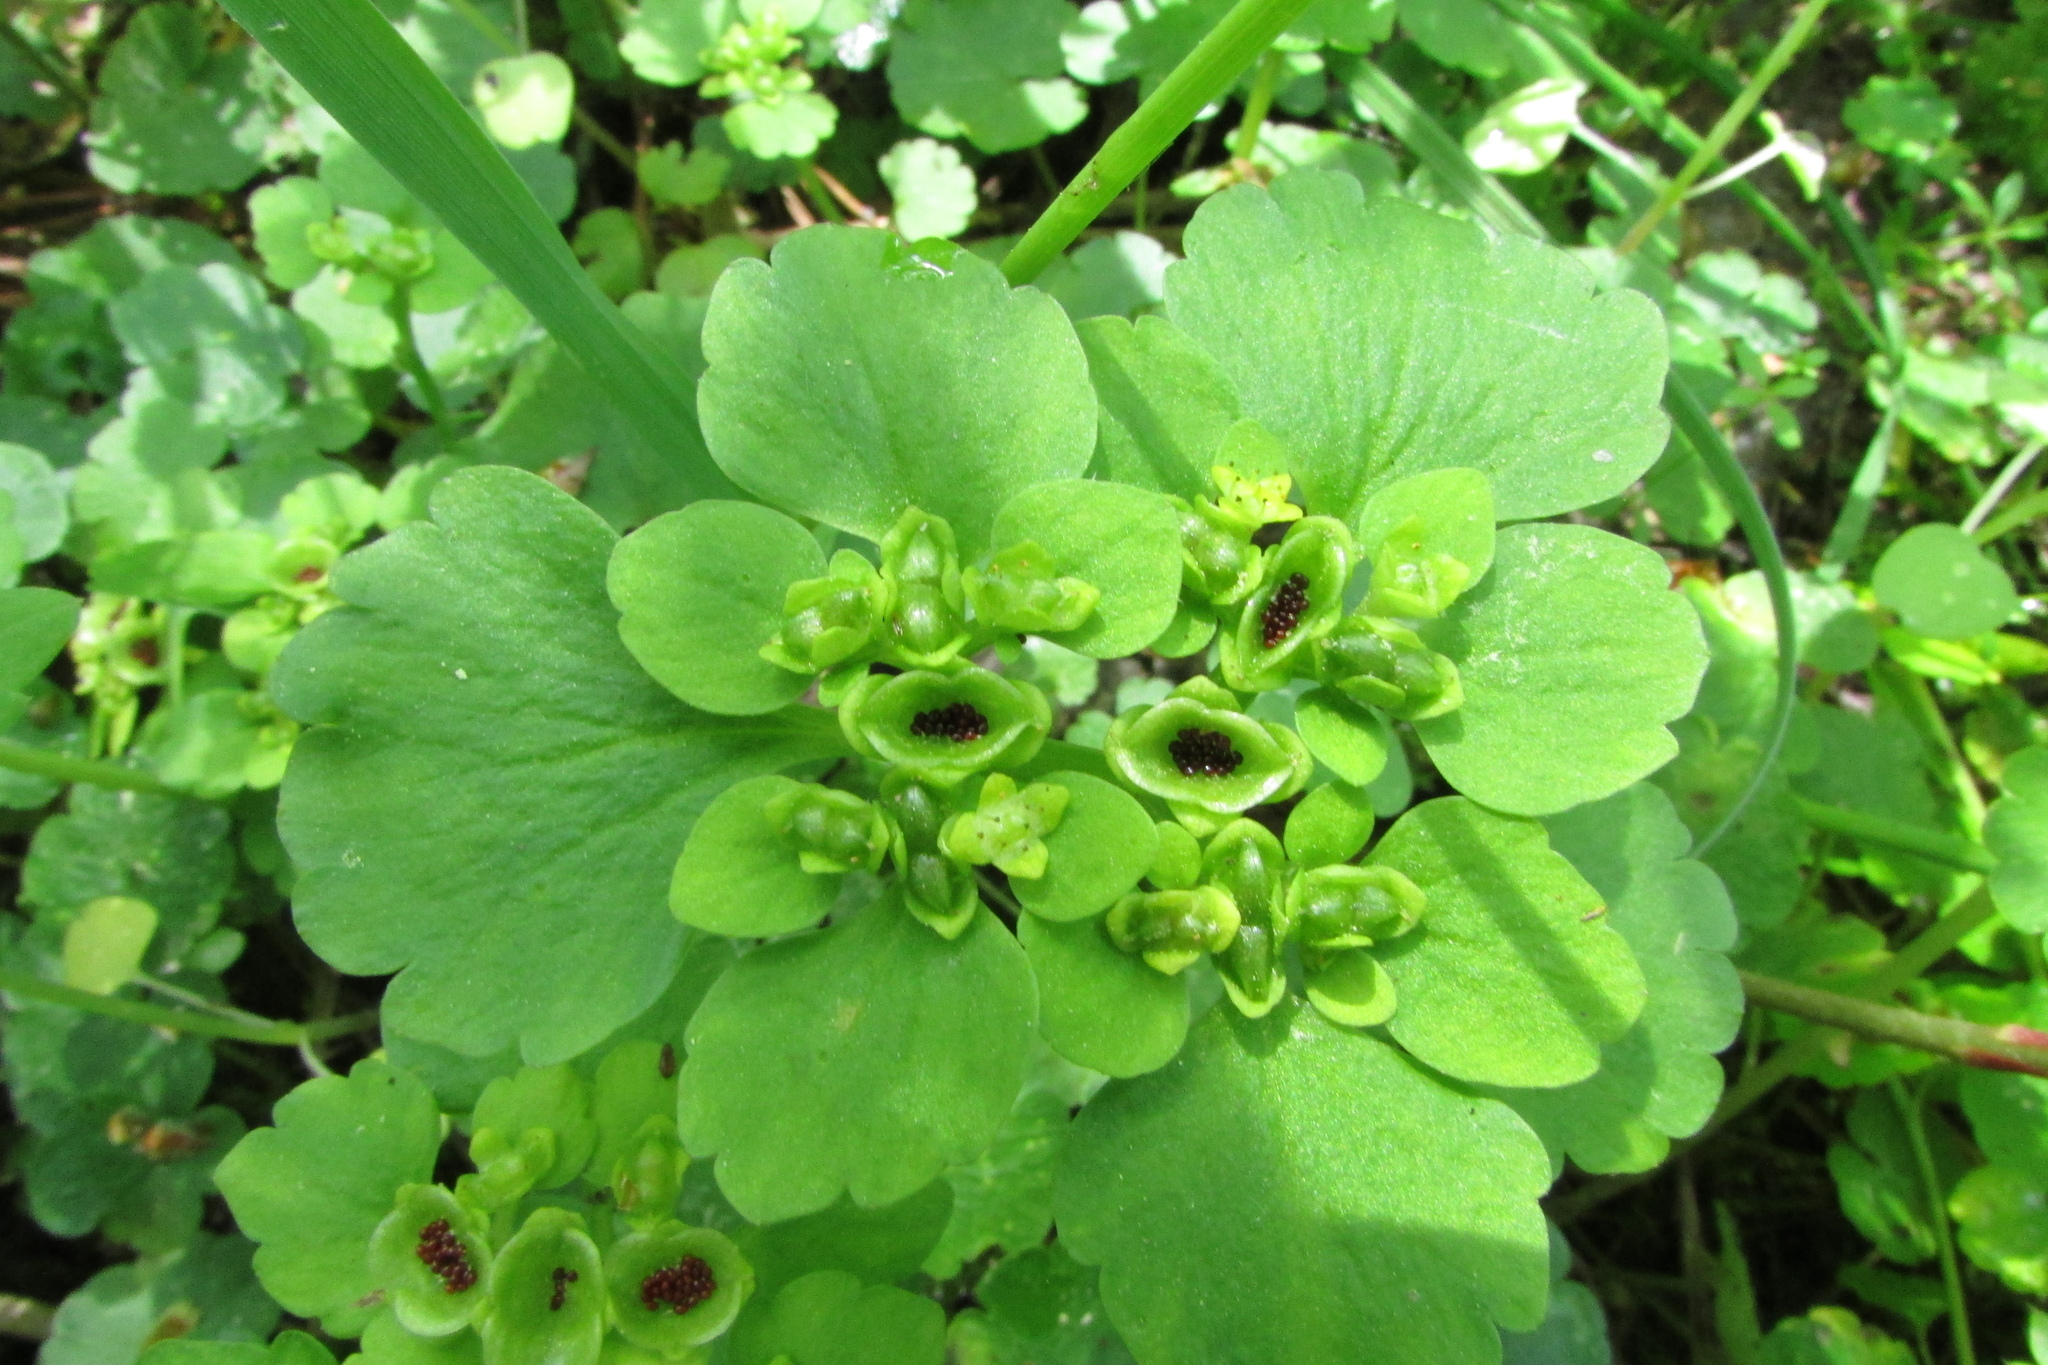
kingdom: Plantae
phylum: Tracheophyta
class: Magnoliopsida
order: Saxifragales
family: Saxifragaceae
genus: Chrysosplenium
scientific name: Chrysosplenium alternifolium
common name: Alternate-leaved golden-saxifrage
